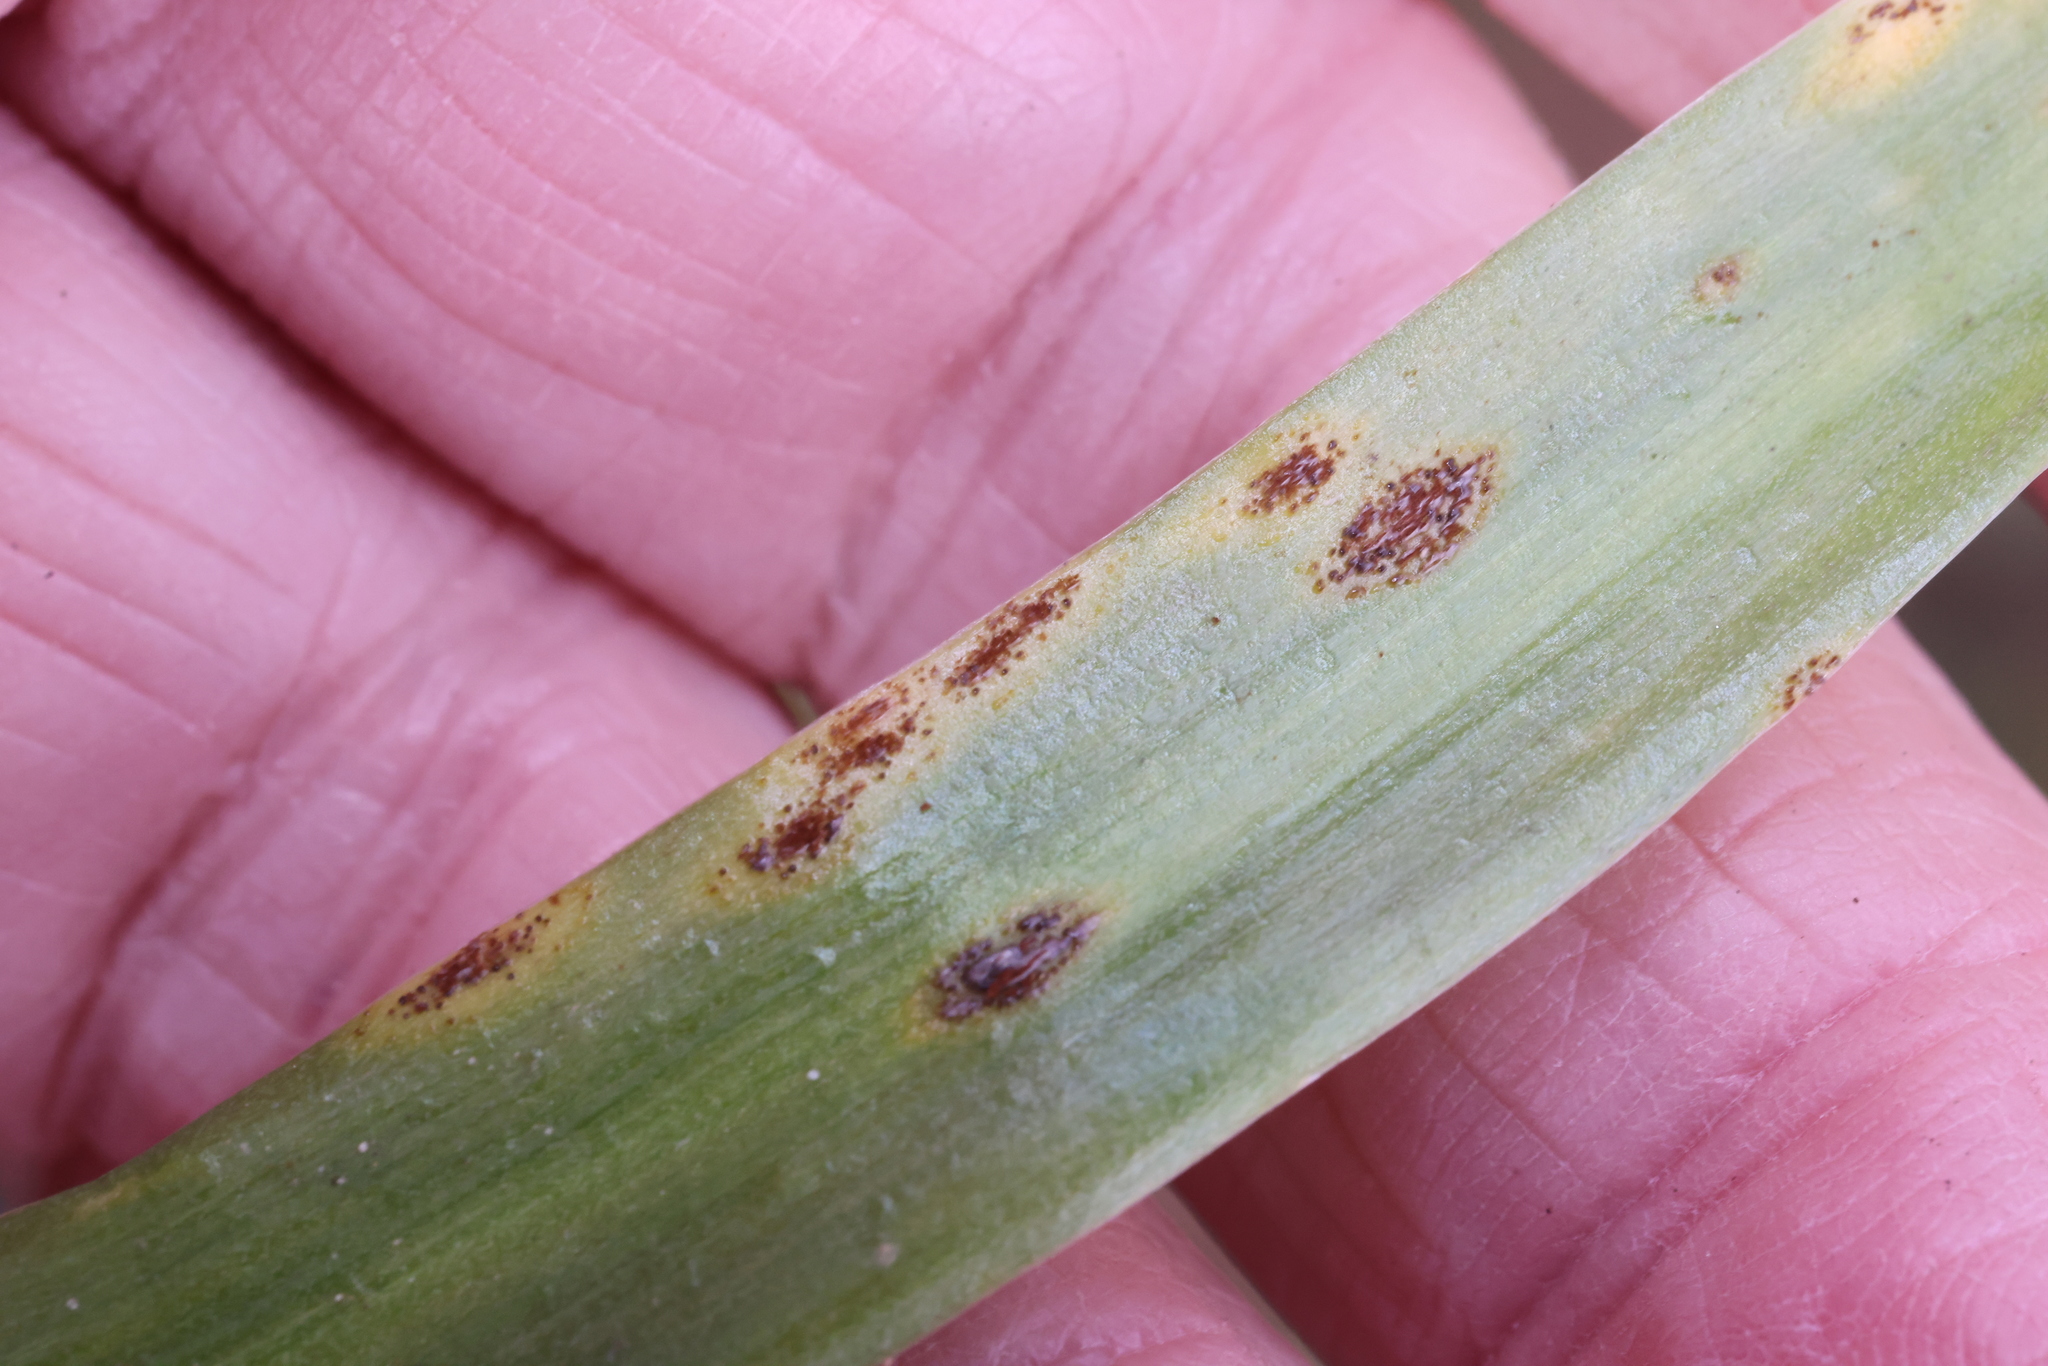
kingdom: Fungi
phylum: Basidiomycota
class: Pucciniomycetes
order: Pucciniales
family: Pucciniaceae
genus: Uromyces
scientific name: Uromyces hyacinthi
